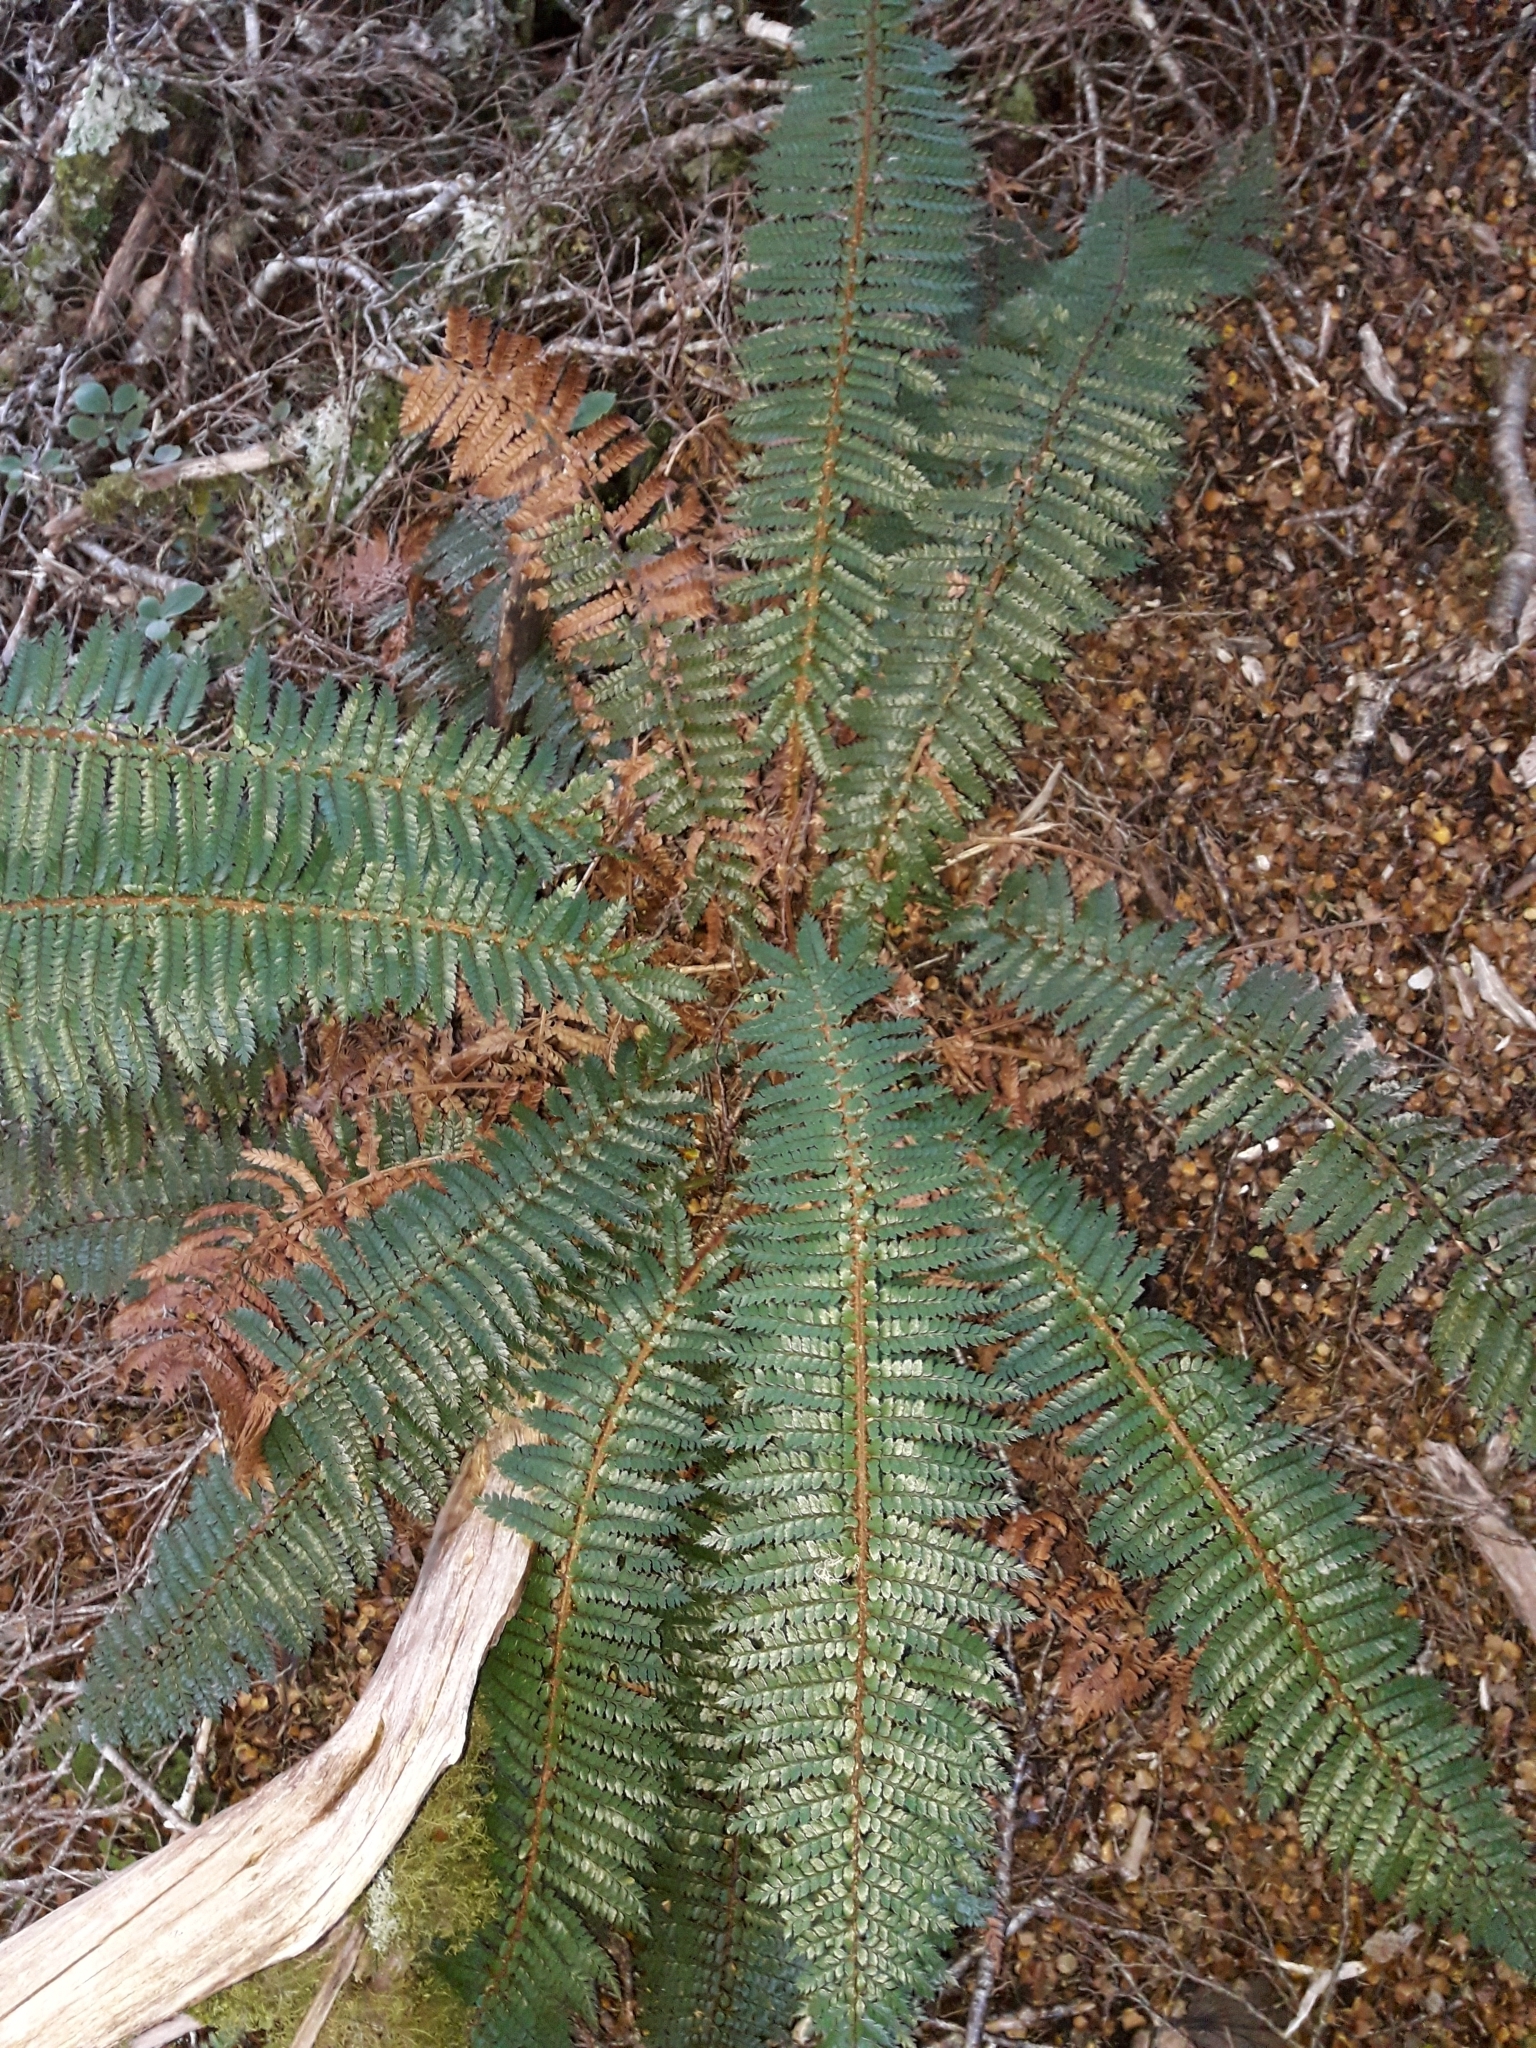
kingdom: Plantae
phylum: Tracheophyta
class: Polypodiopsida
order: Polypodiales
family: Dryopteridaceae
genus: Polystichum
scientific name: Polystichum vestitum
